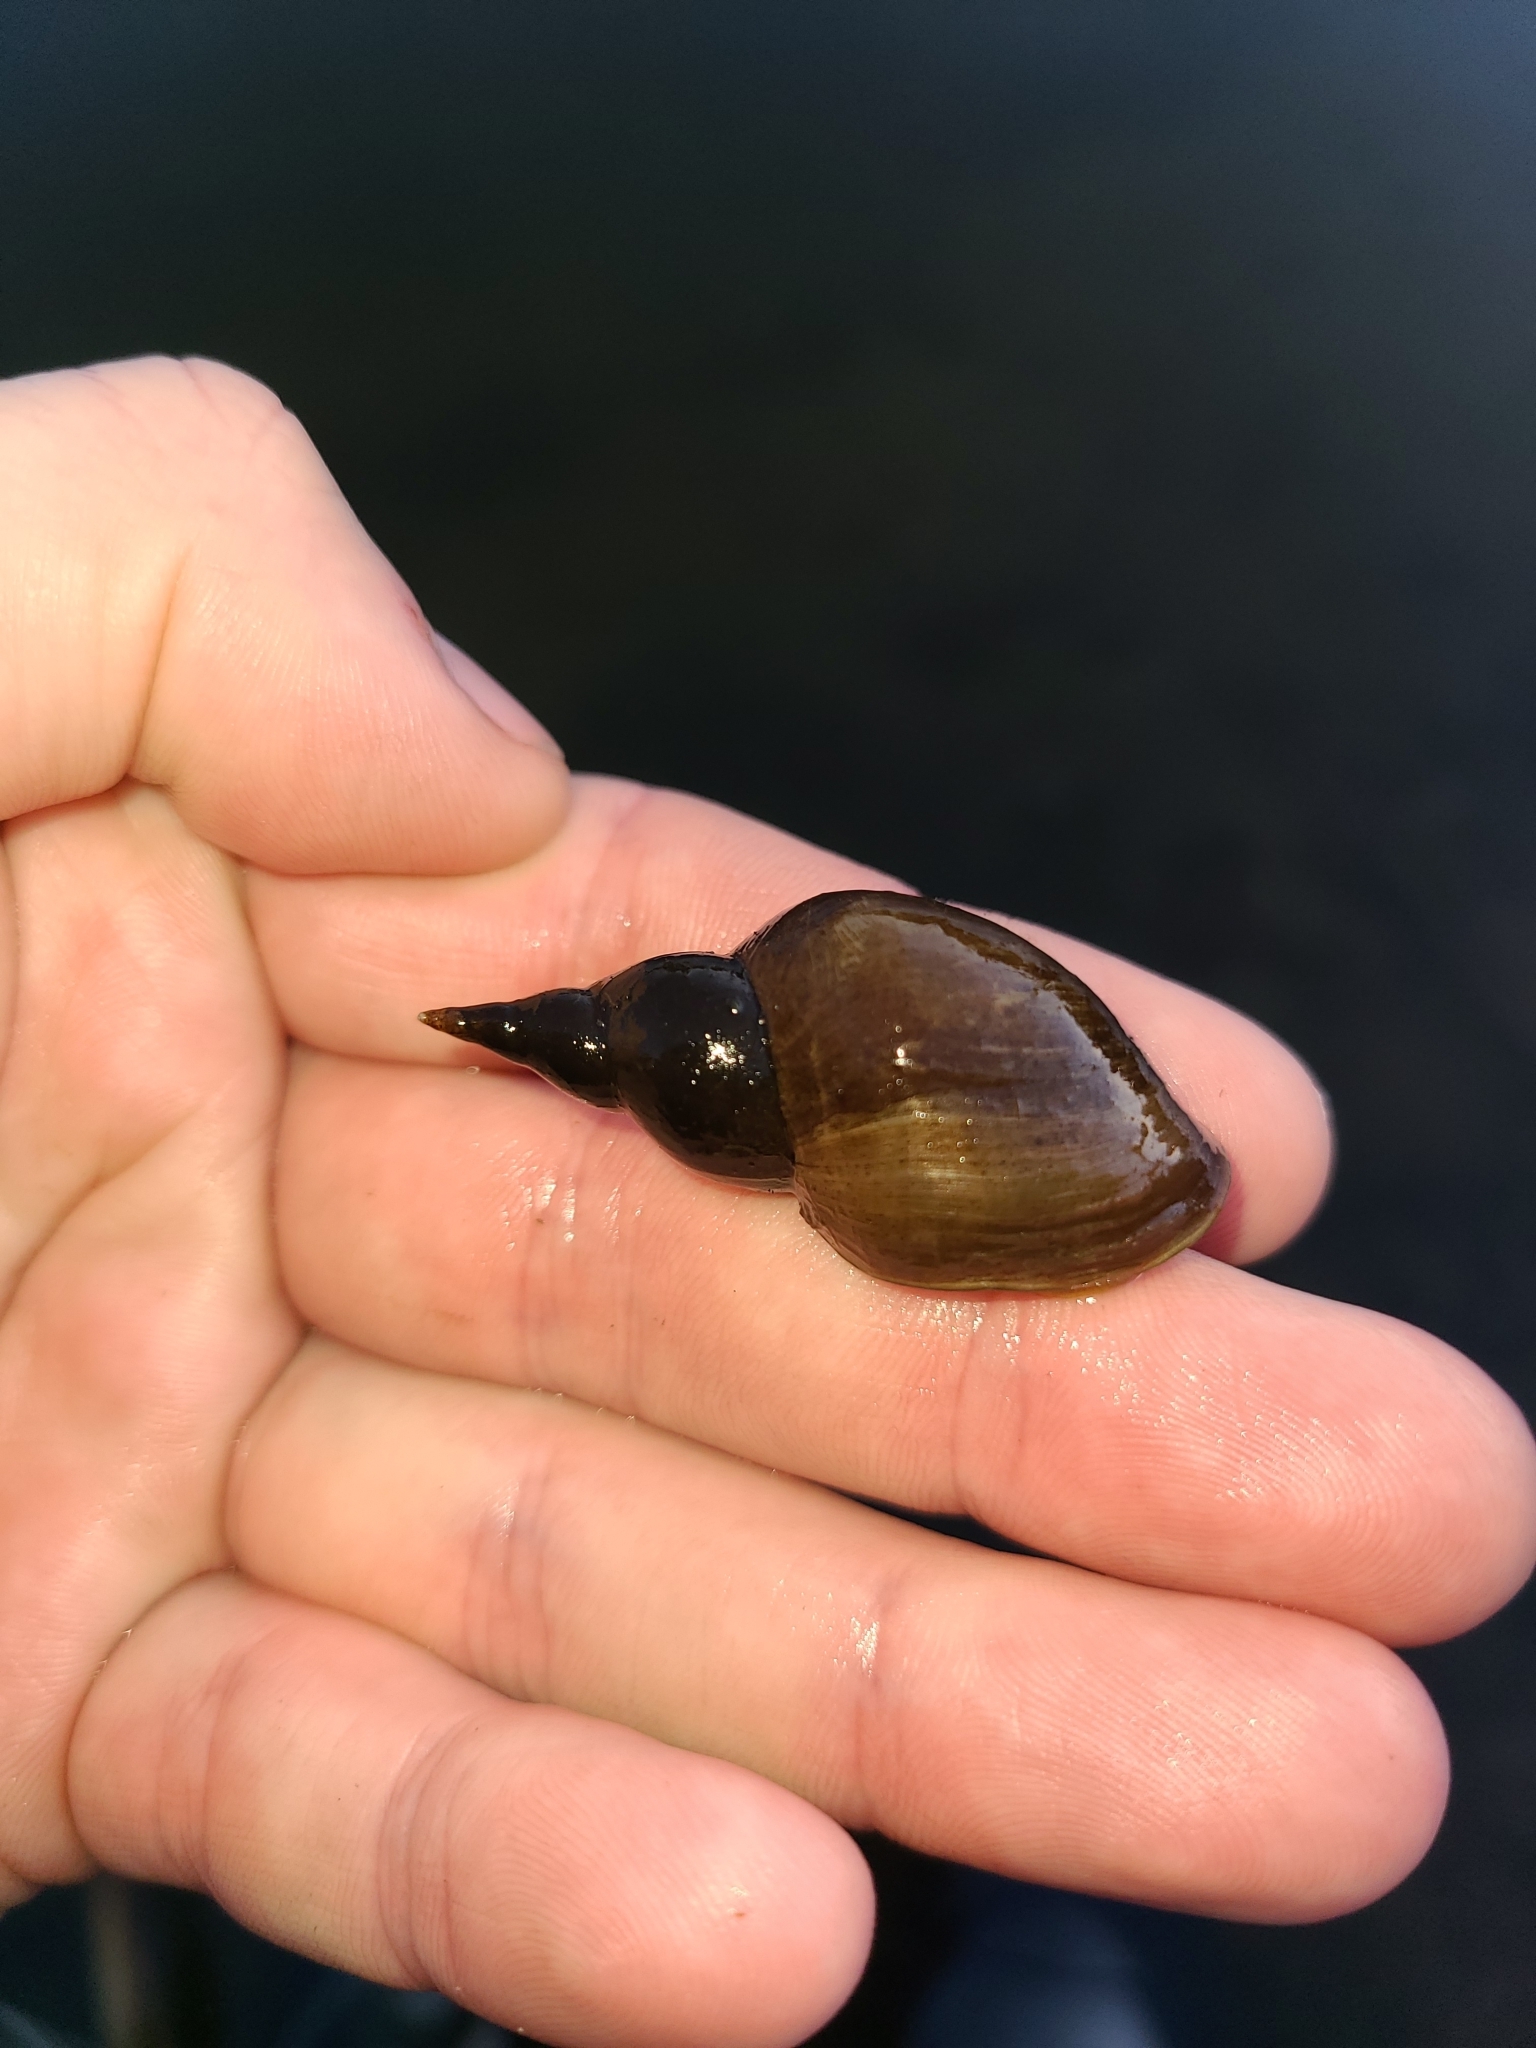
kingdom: Animalia
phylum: Mollusca
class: Gastropoda
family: Lymnaeidae
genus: Lymnaea
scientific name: Lymnaea stagnalis
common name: Great pond snail
